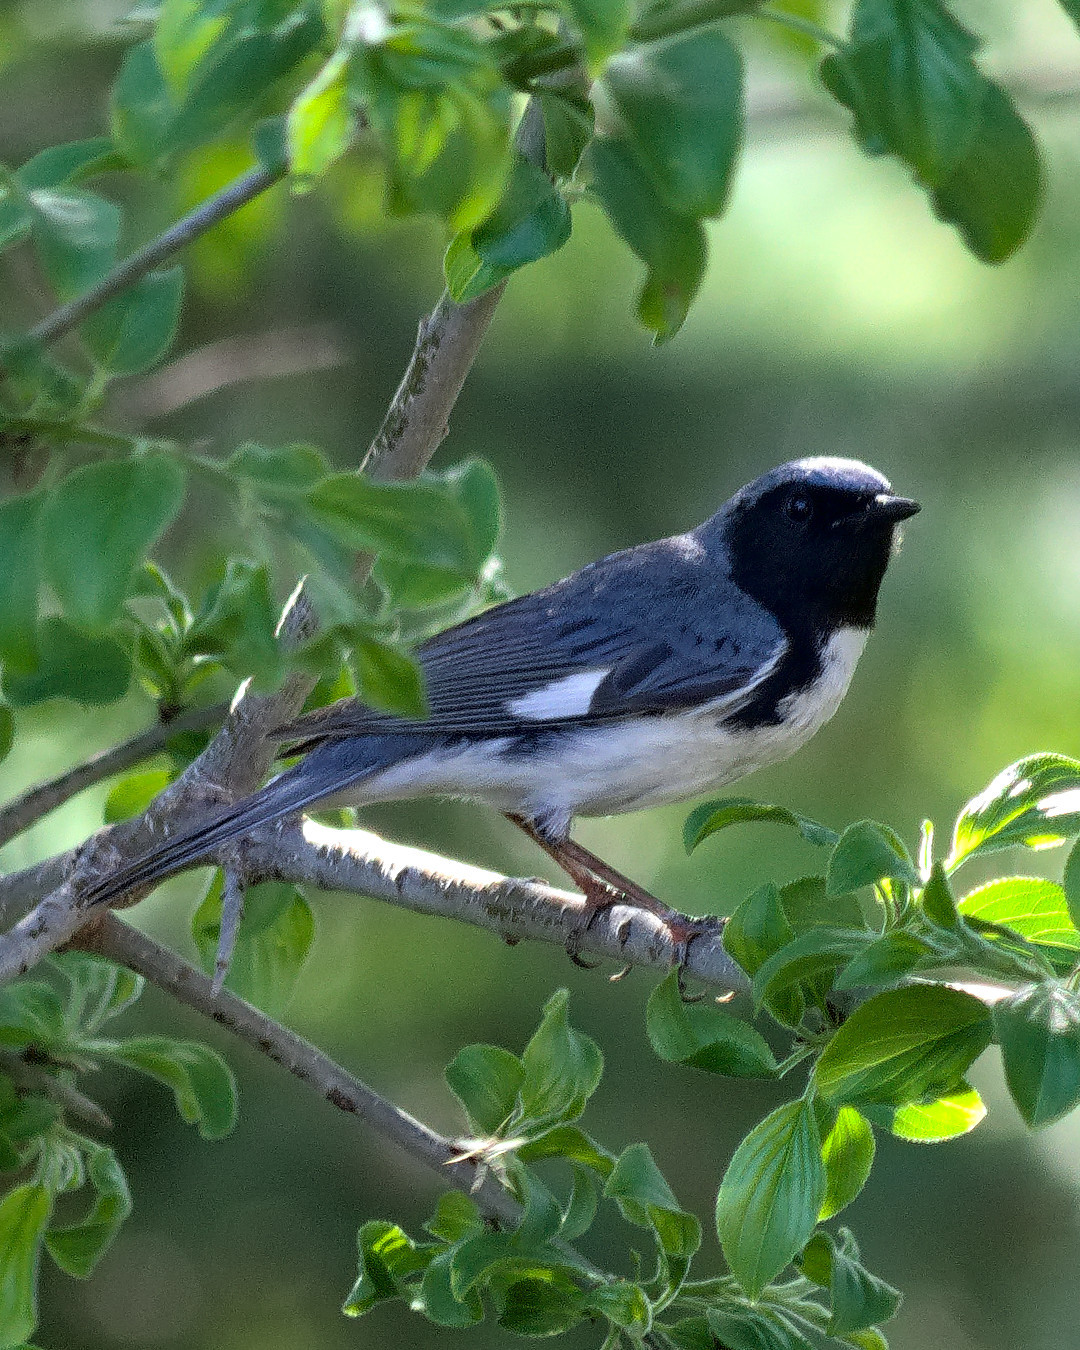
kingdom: Animalia
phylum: Chordata
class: Aves
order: Passeriformes
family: Parulidae
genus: Setophaga
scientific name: Setophaga caerulescens
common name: Black-throated blue warbler
